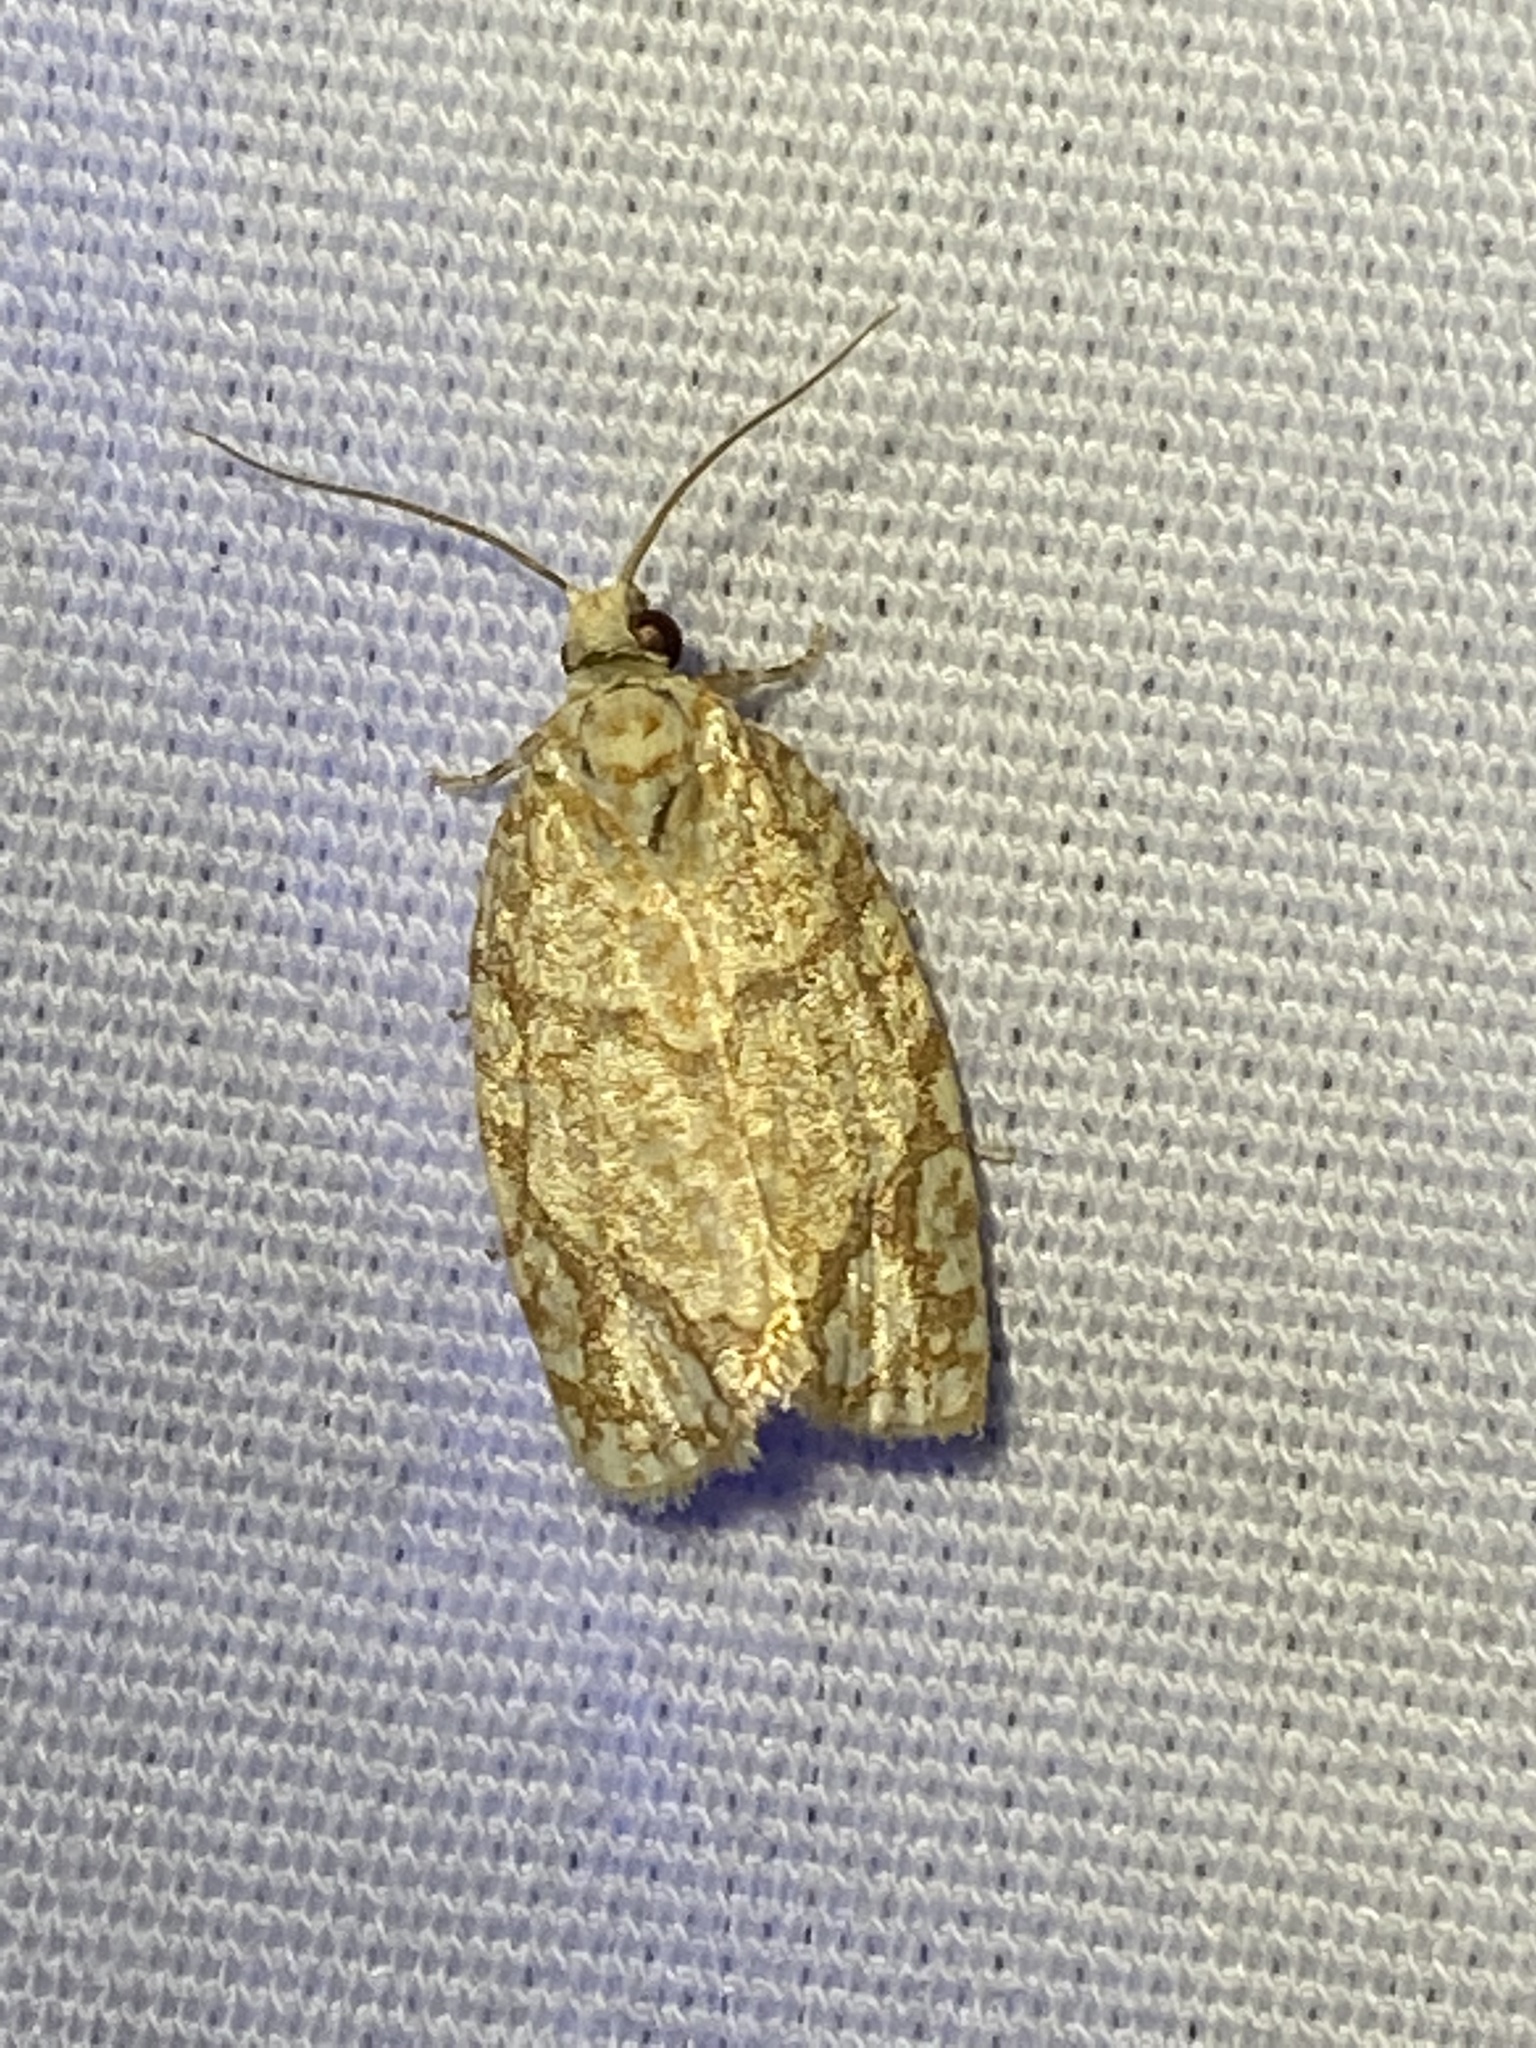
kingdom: Animalia
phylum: Arthropoda
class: Insecta
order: Lepidoptera
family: Tortricidae
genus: Argyrotaenia
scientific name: Argyrotaenia quercifoliana
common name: Yellow-winged oak leafroller moth
